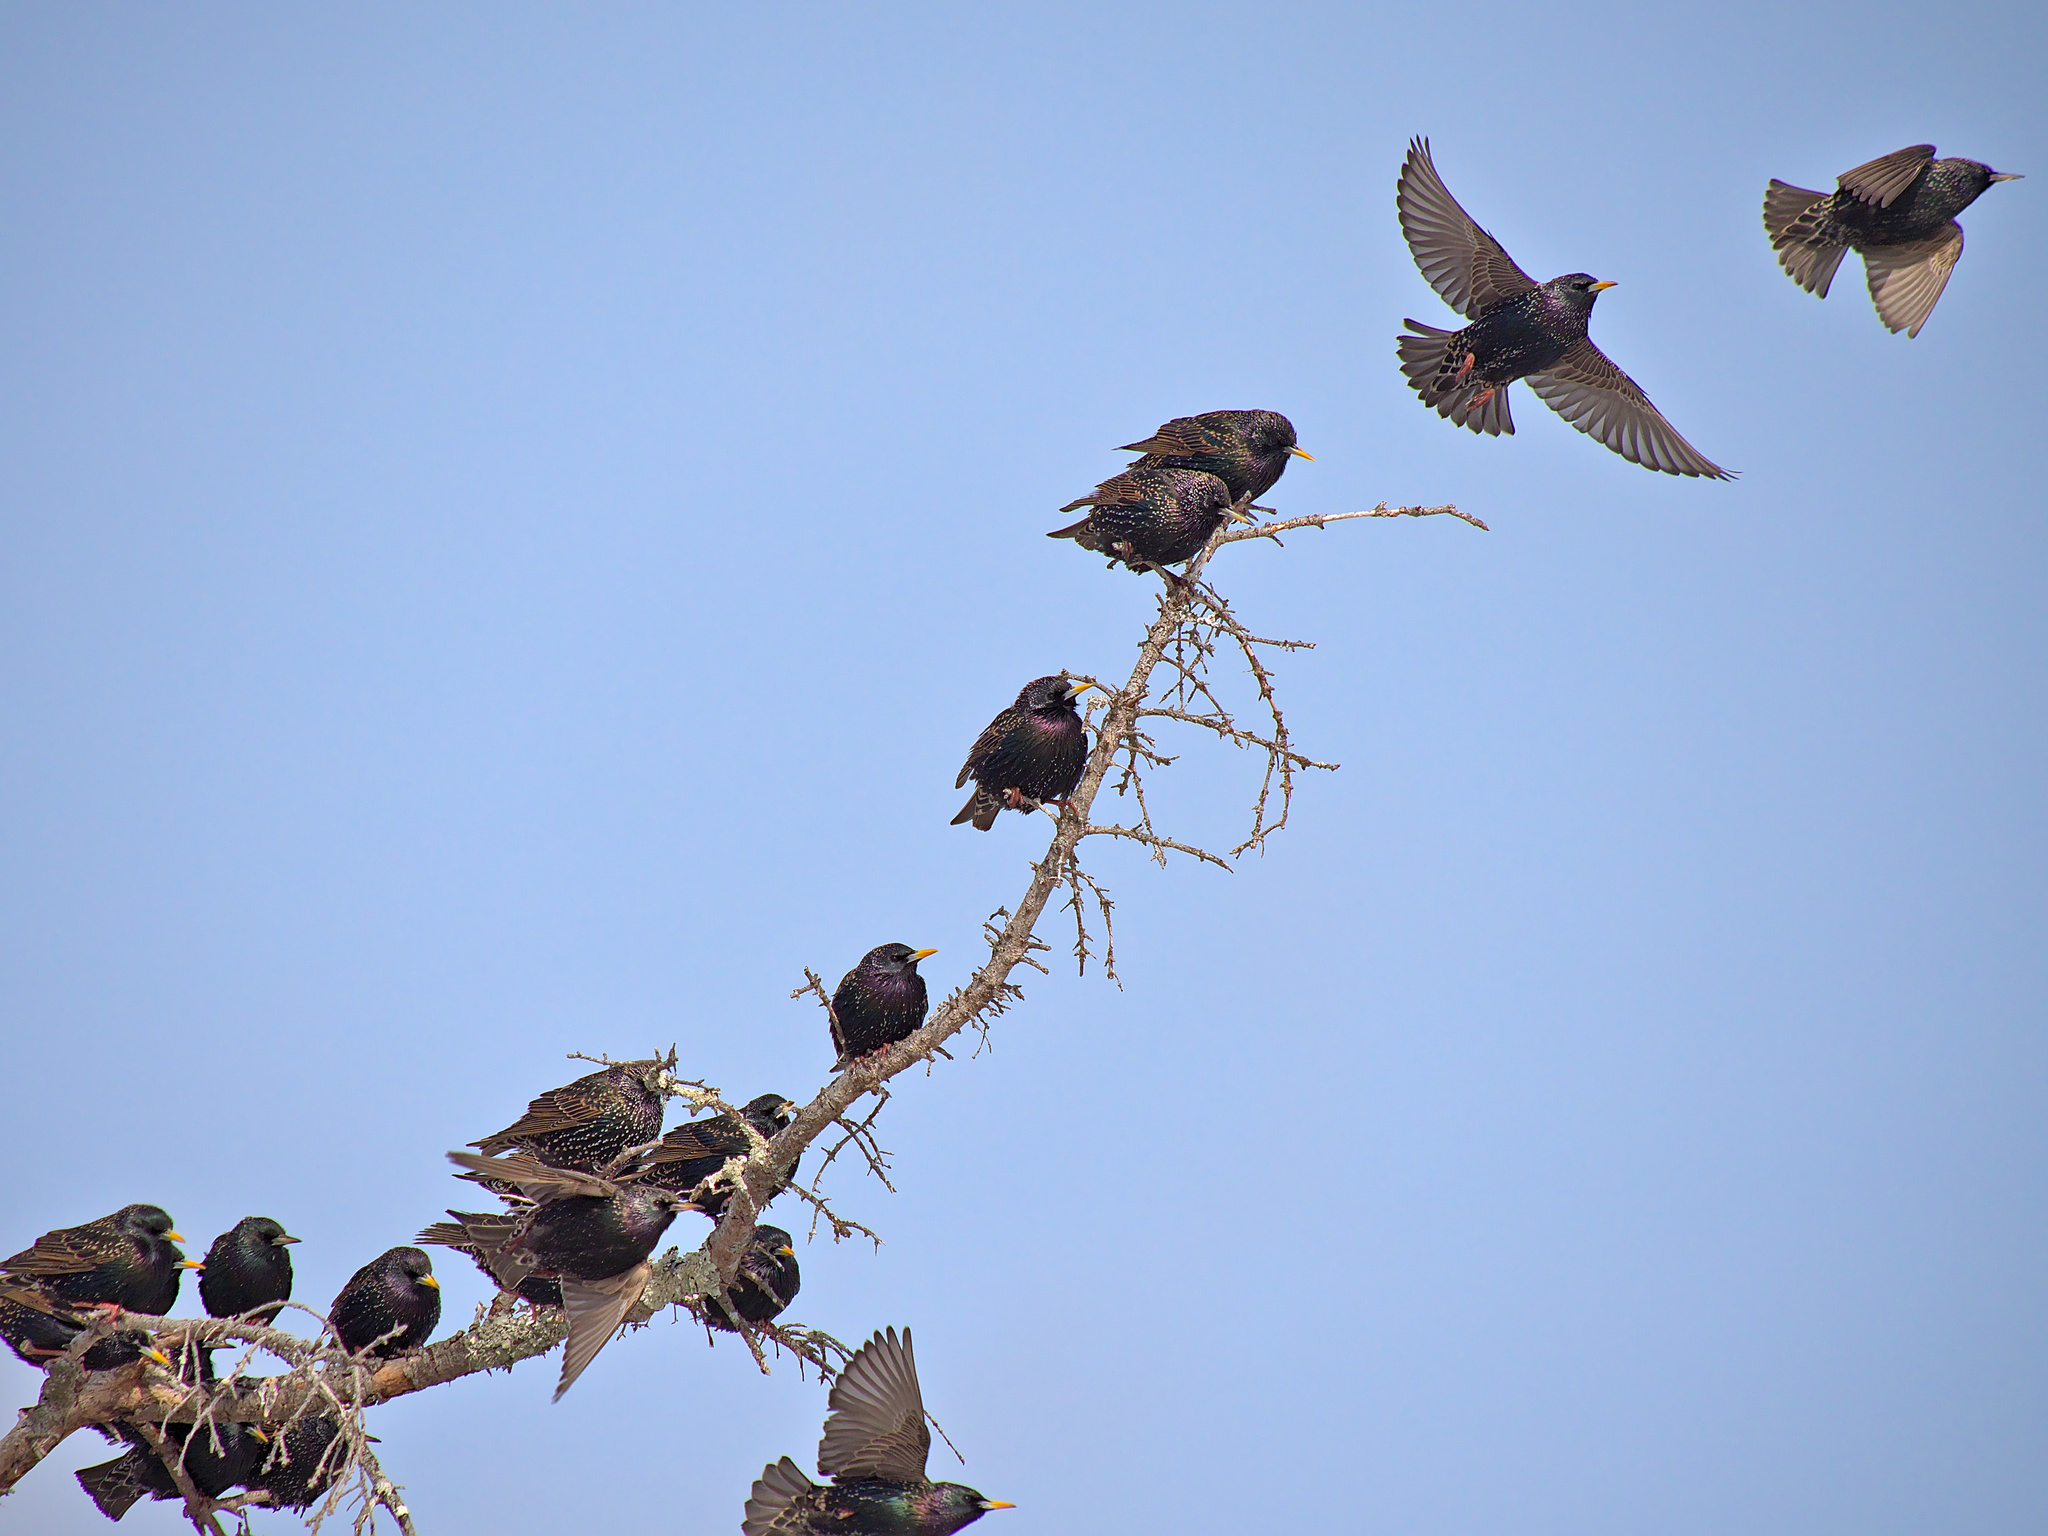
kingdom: Animalia
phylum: Chordata
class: Aves
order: Passeriformes
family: Sturnidae
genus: Sturnus
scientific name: Sturnus vulgaris
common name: Common starling
